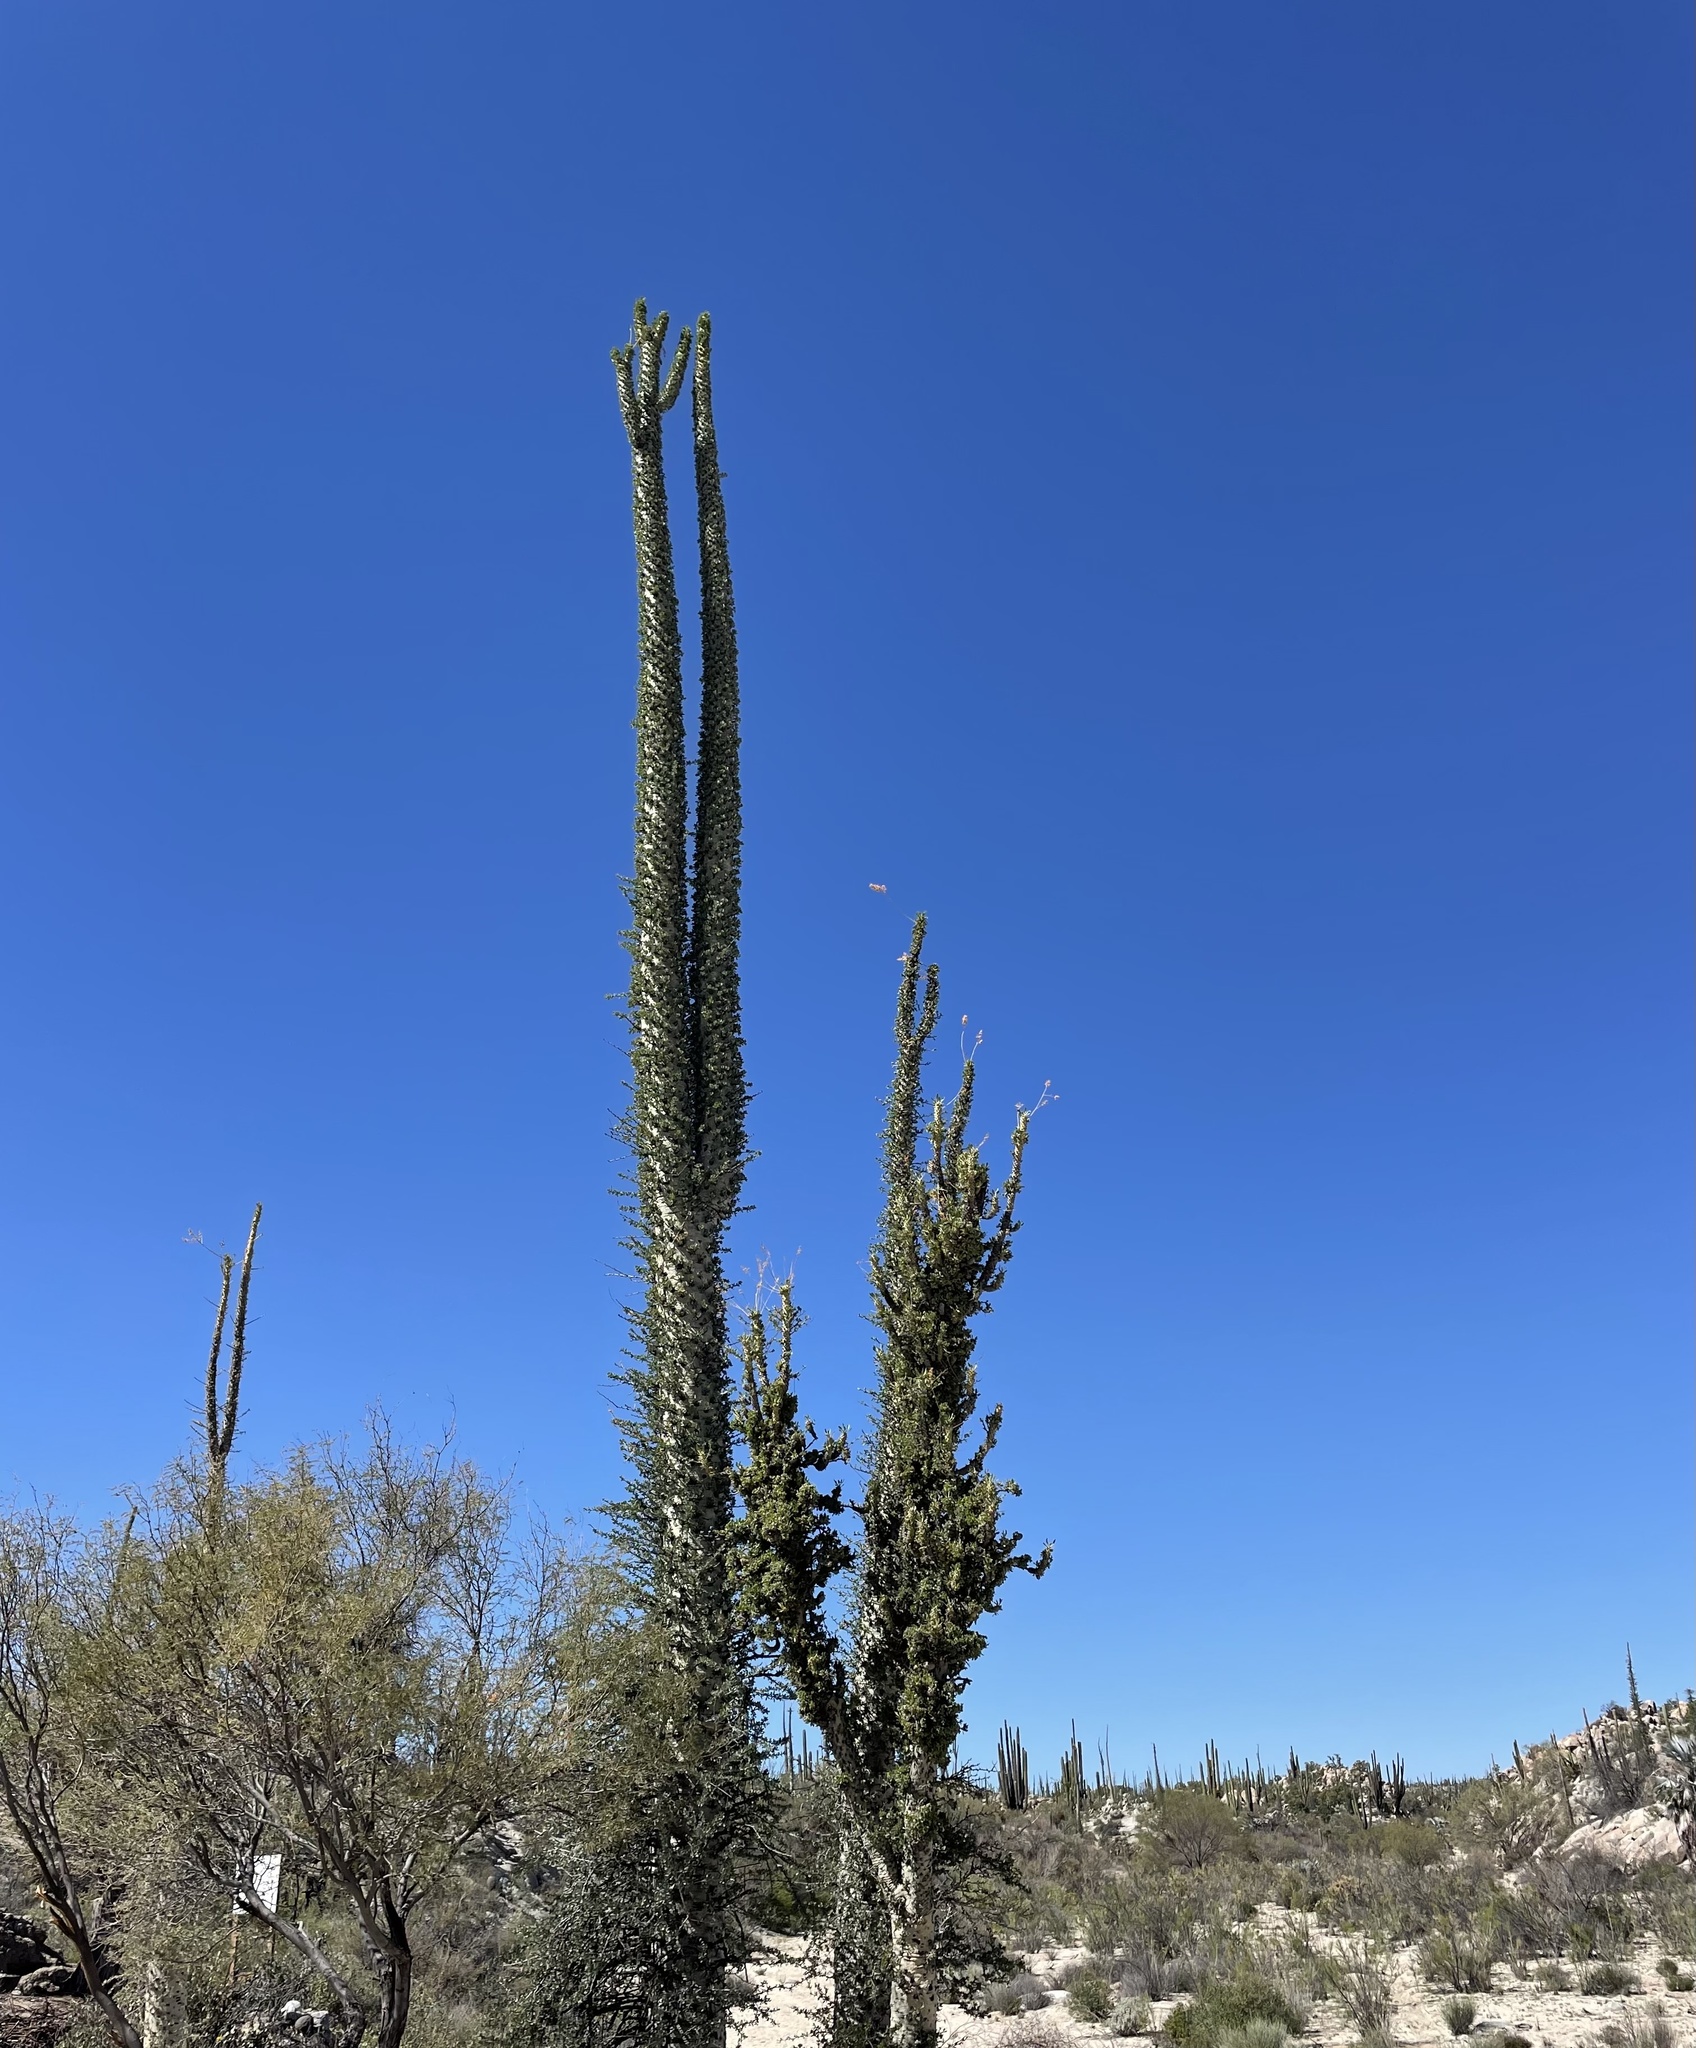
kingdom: Plantae
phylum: Tracheophyta
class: Magnoliopsida
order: Ericales
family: Fouquieriaceae
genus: Fouquieria
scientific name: Fouquieria columnaris
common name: Boojumtree
